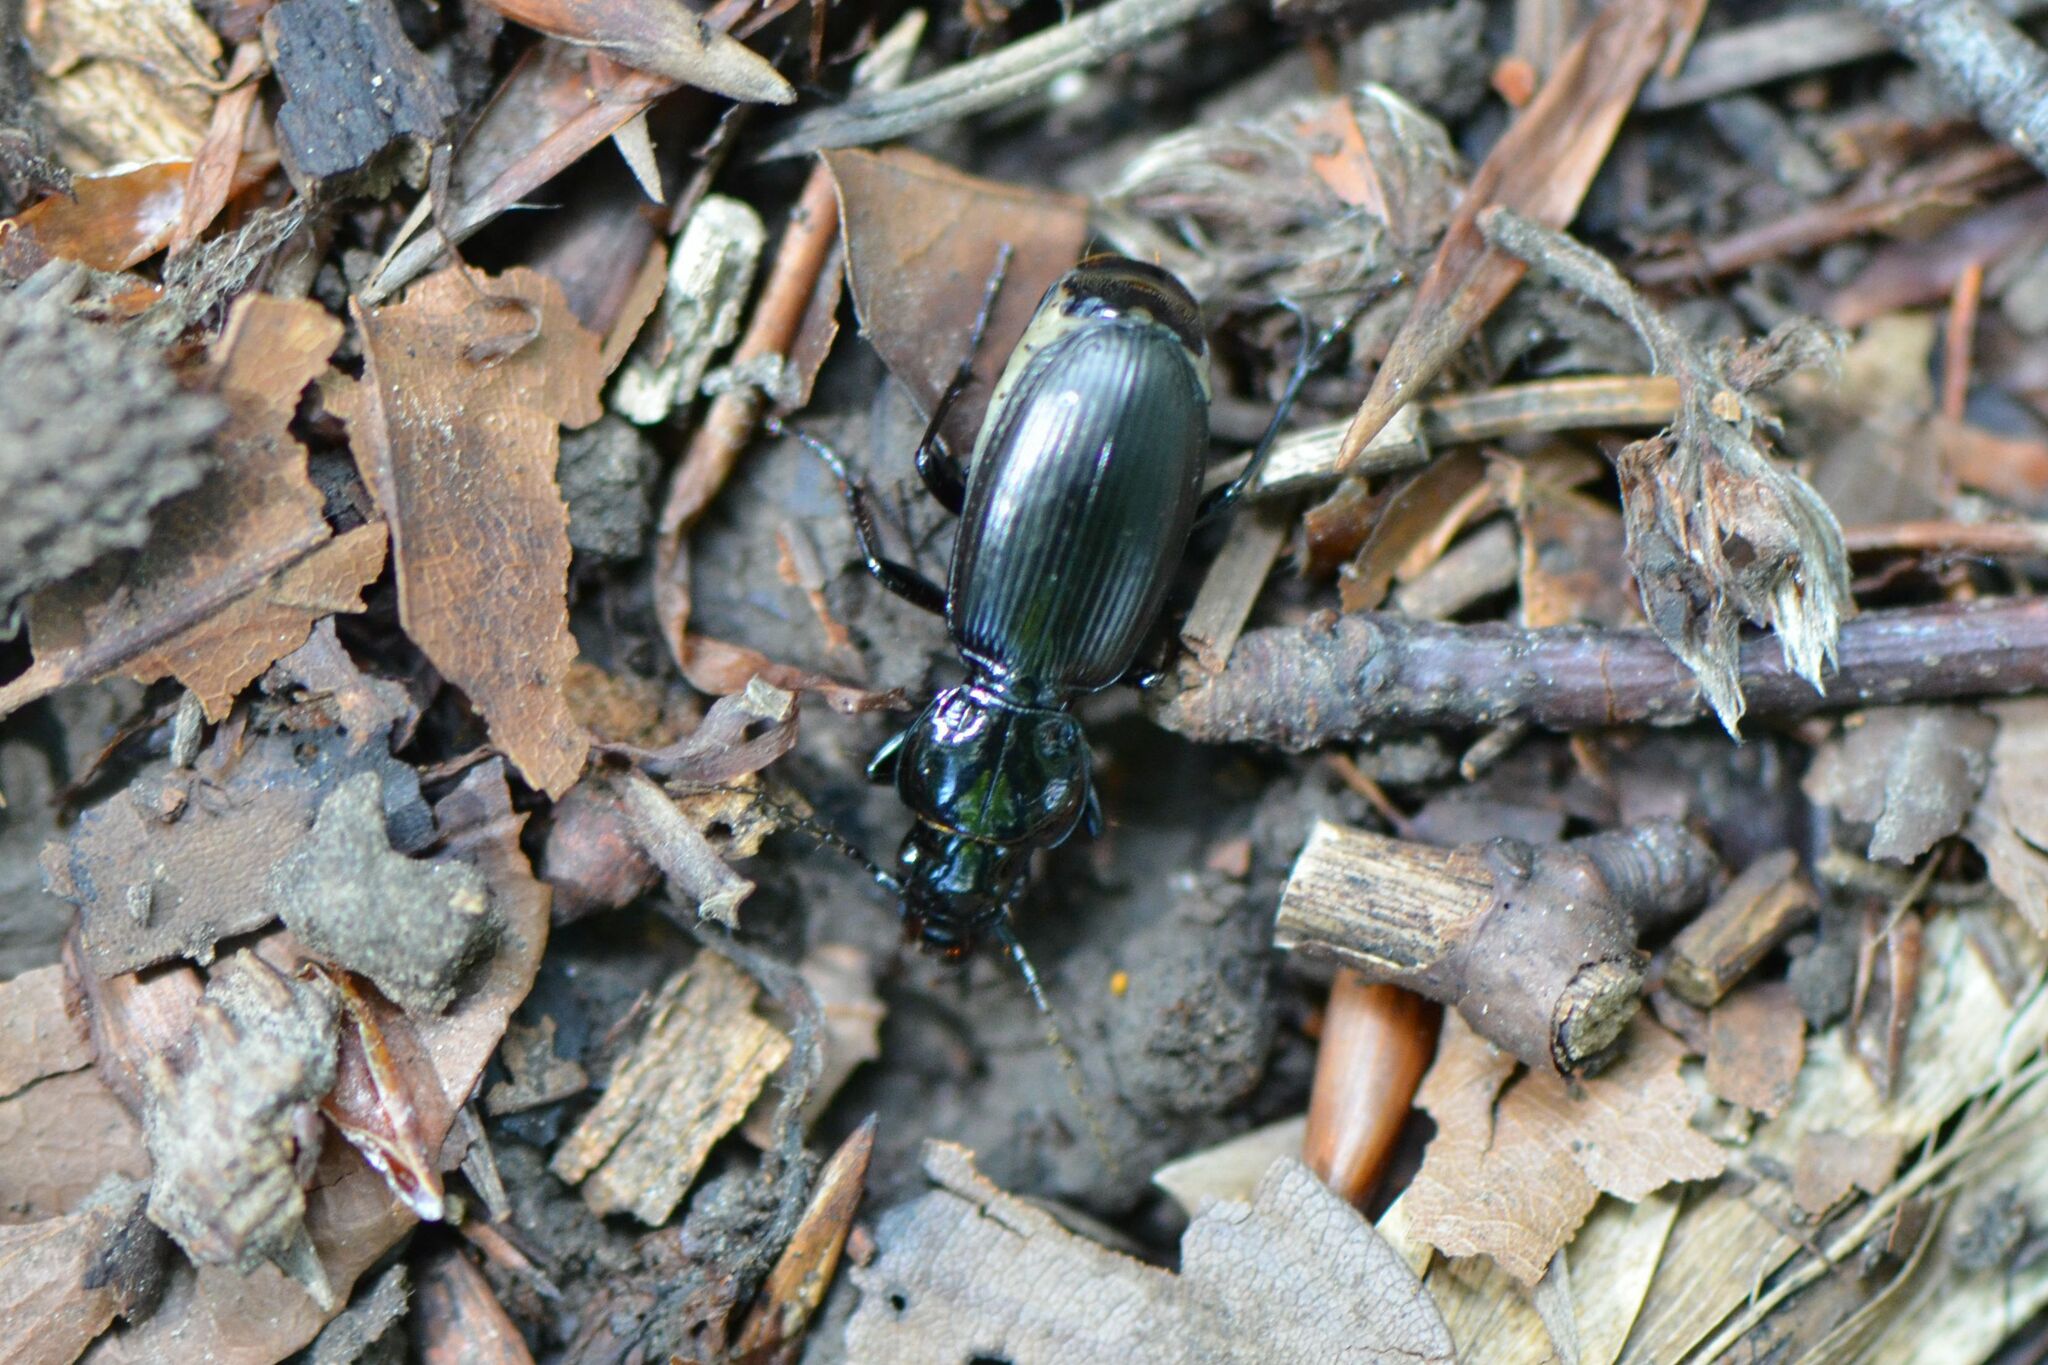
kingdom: Animalia
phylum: Arthropoda
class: Insecta
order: Coleoptera
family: Carabidae
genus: Pterostichus
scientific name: Pterostichus madidus
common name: Black clock
